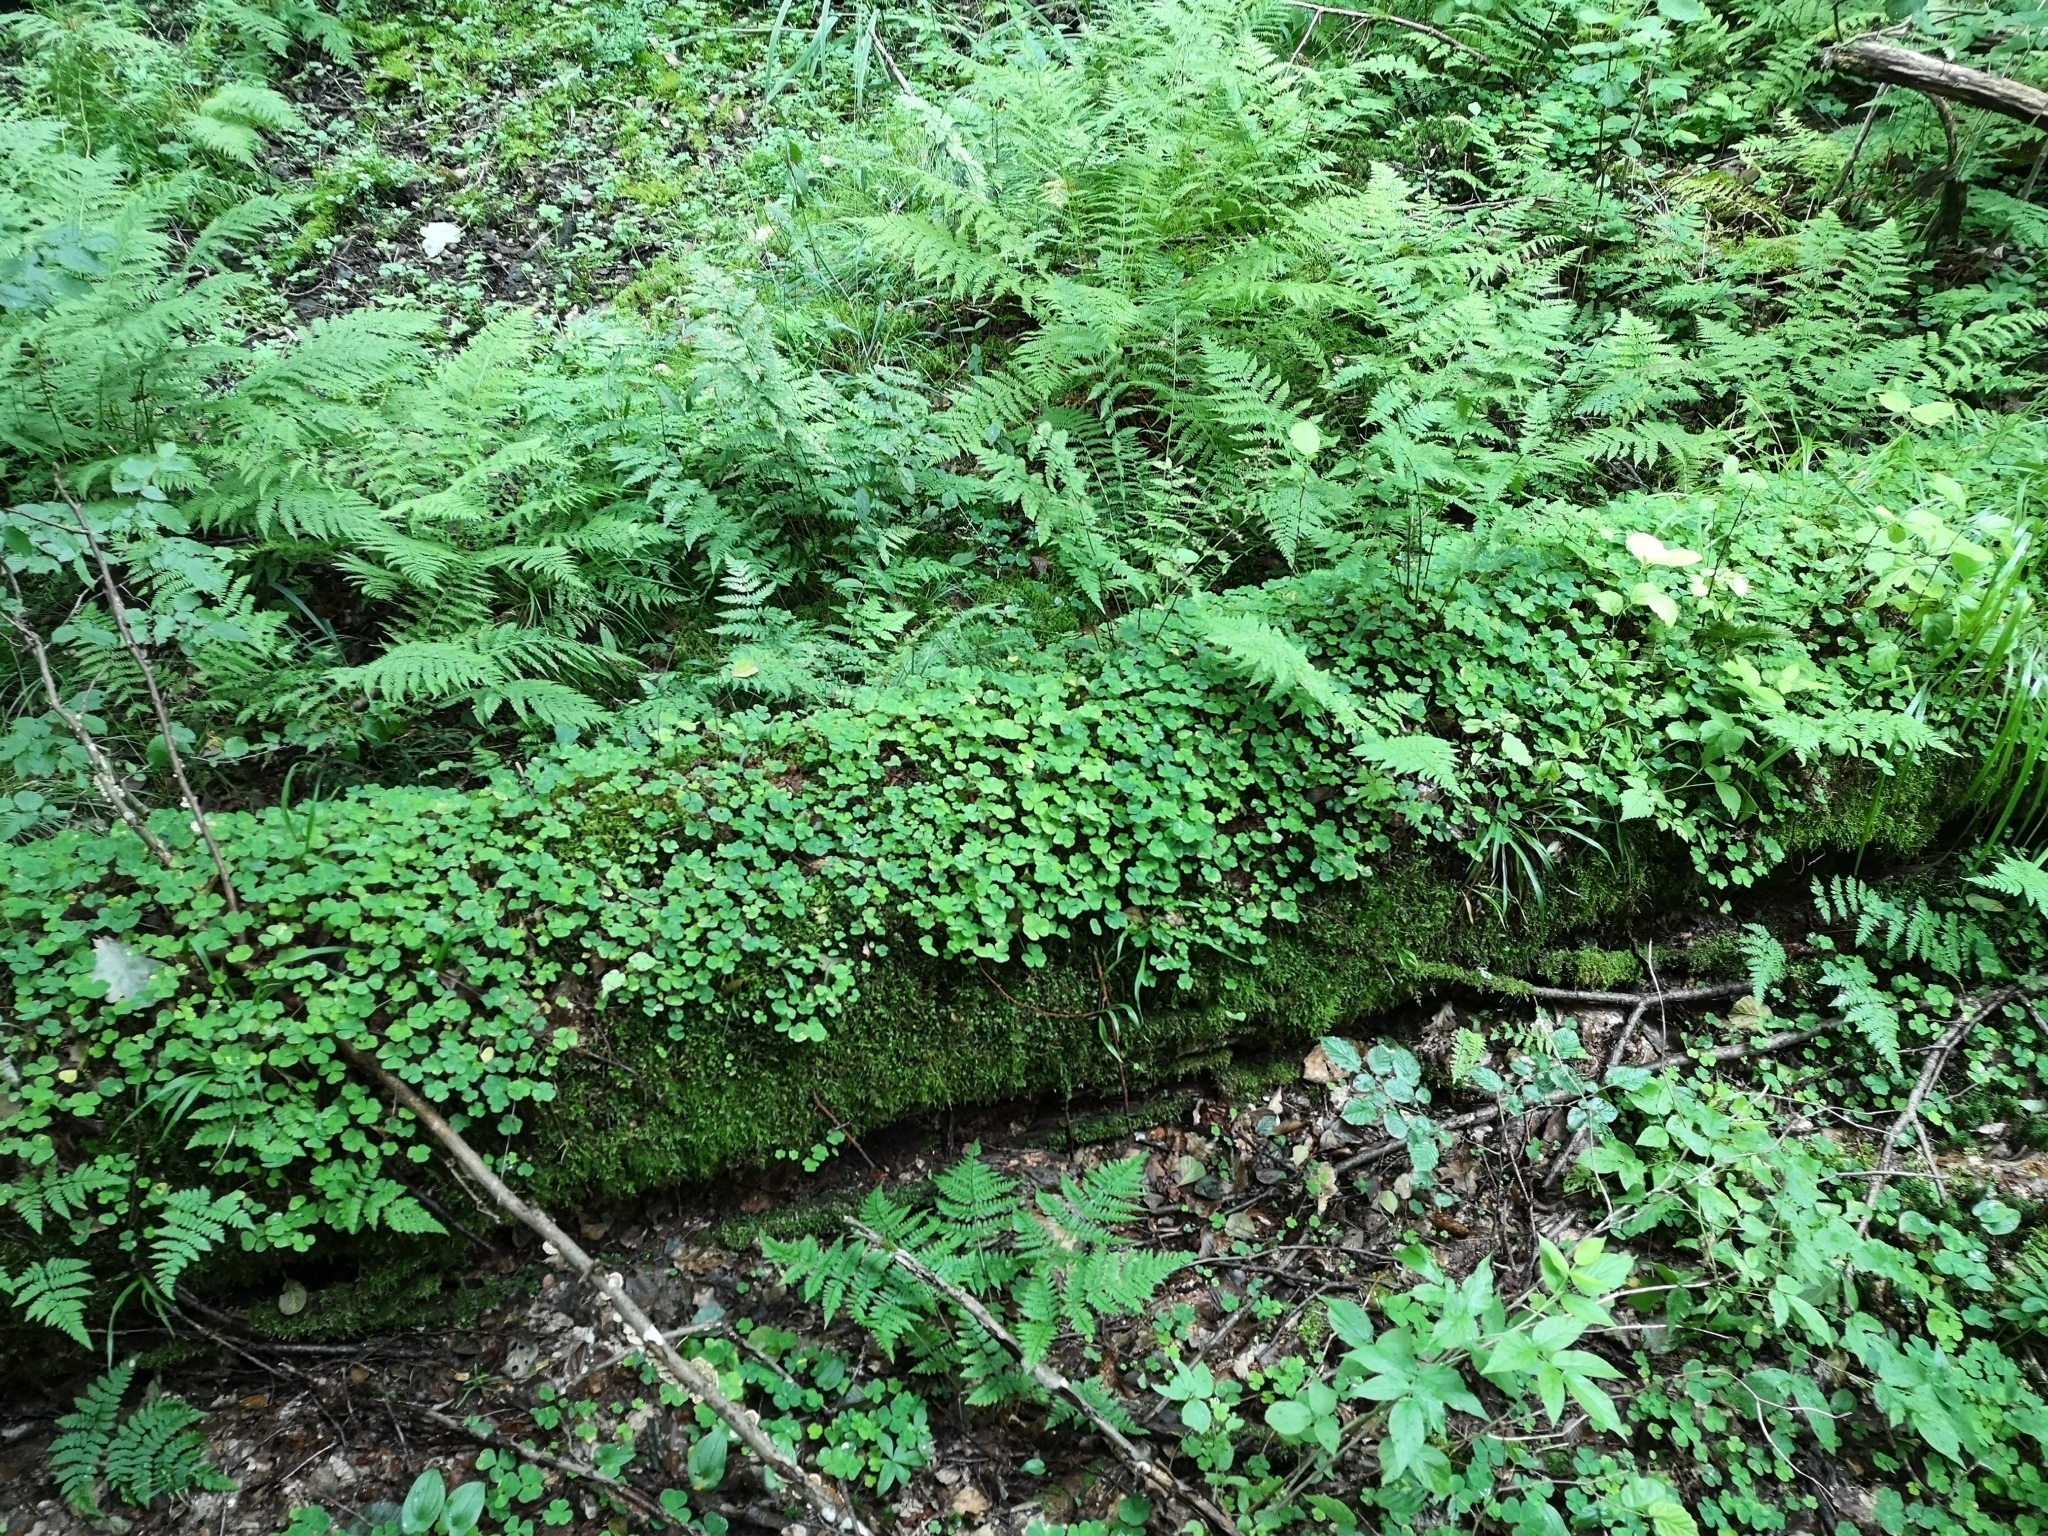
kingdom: Plantae
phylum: Tracheophyta
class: Magnoliopsida
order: Oxalidales
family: Oxalidaceae
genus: Oxalis
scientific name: Oxalis acetosella
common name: Wood-sorrel
